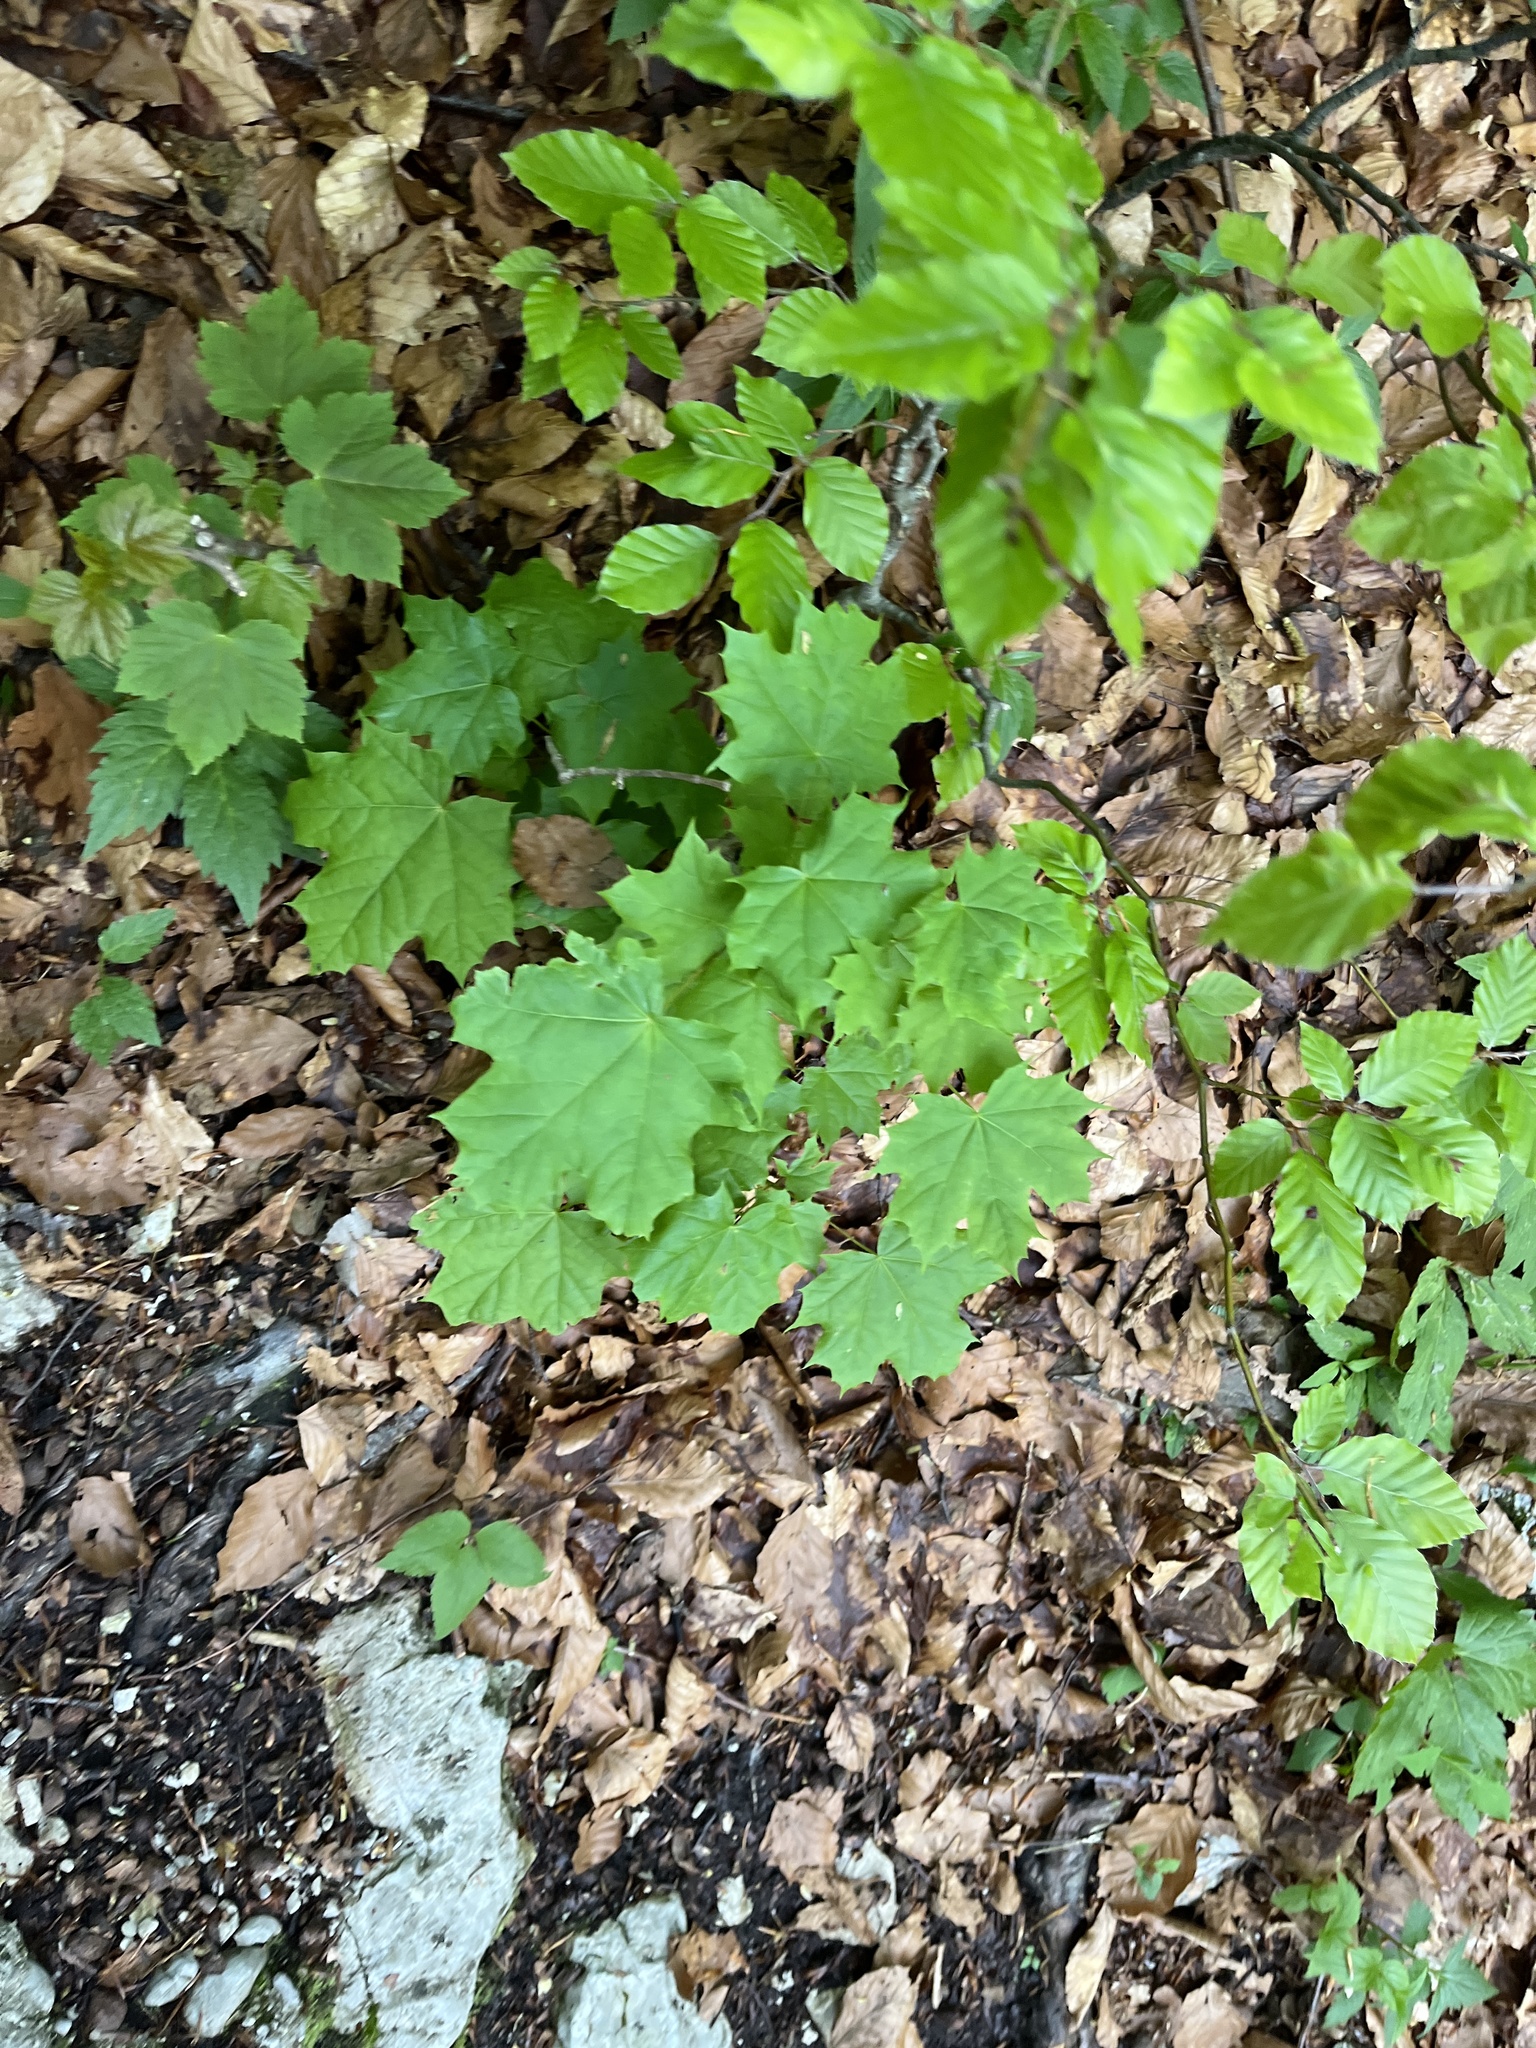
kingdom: Plantae
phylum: Tracheophyta
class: Magnoliopsida
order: Sapindales
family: Sapindaceae
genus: Acer
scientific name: Acer platanoides
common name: Norway maple
